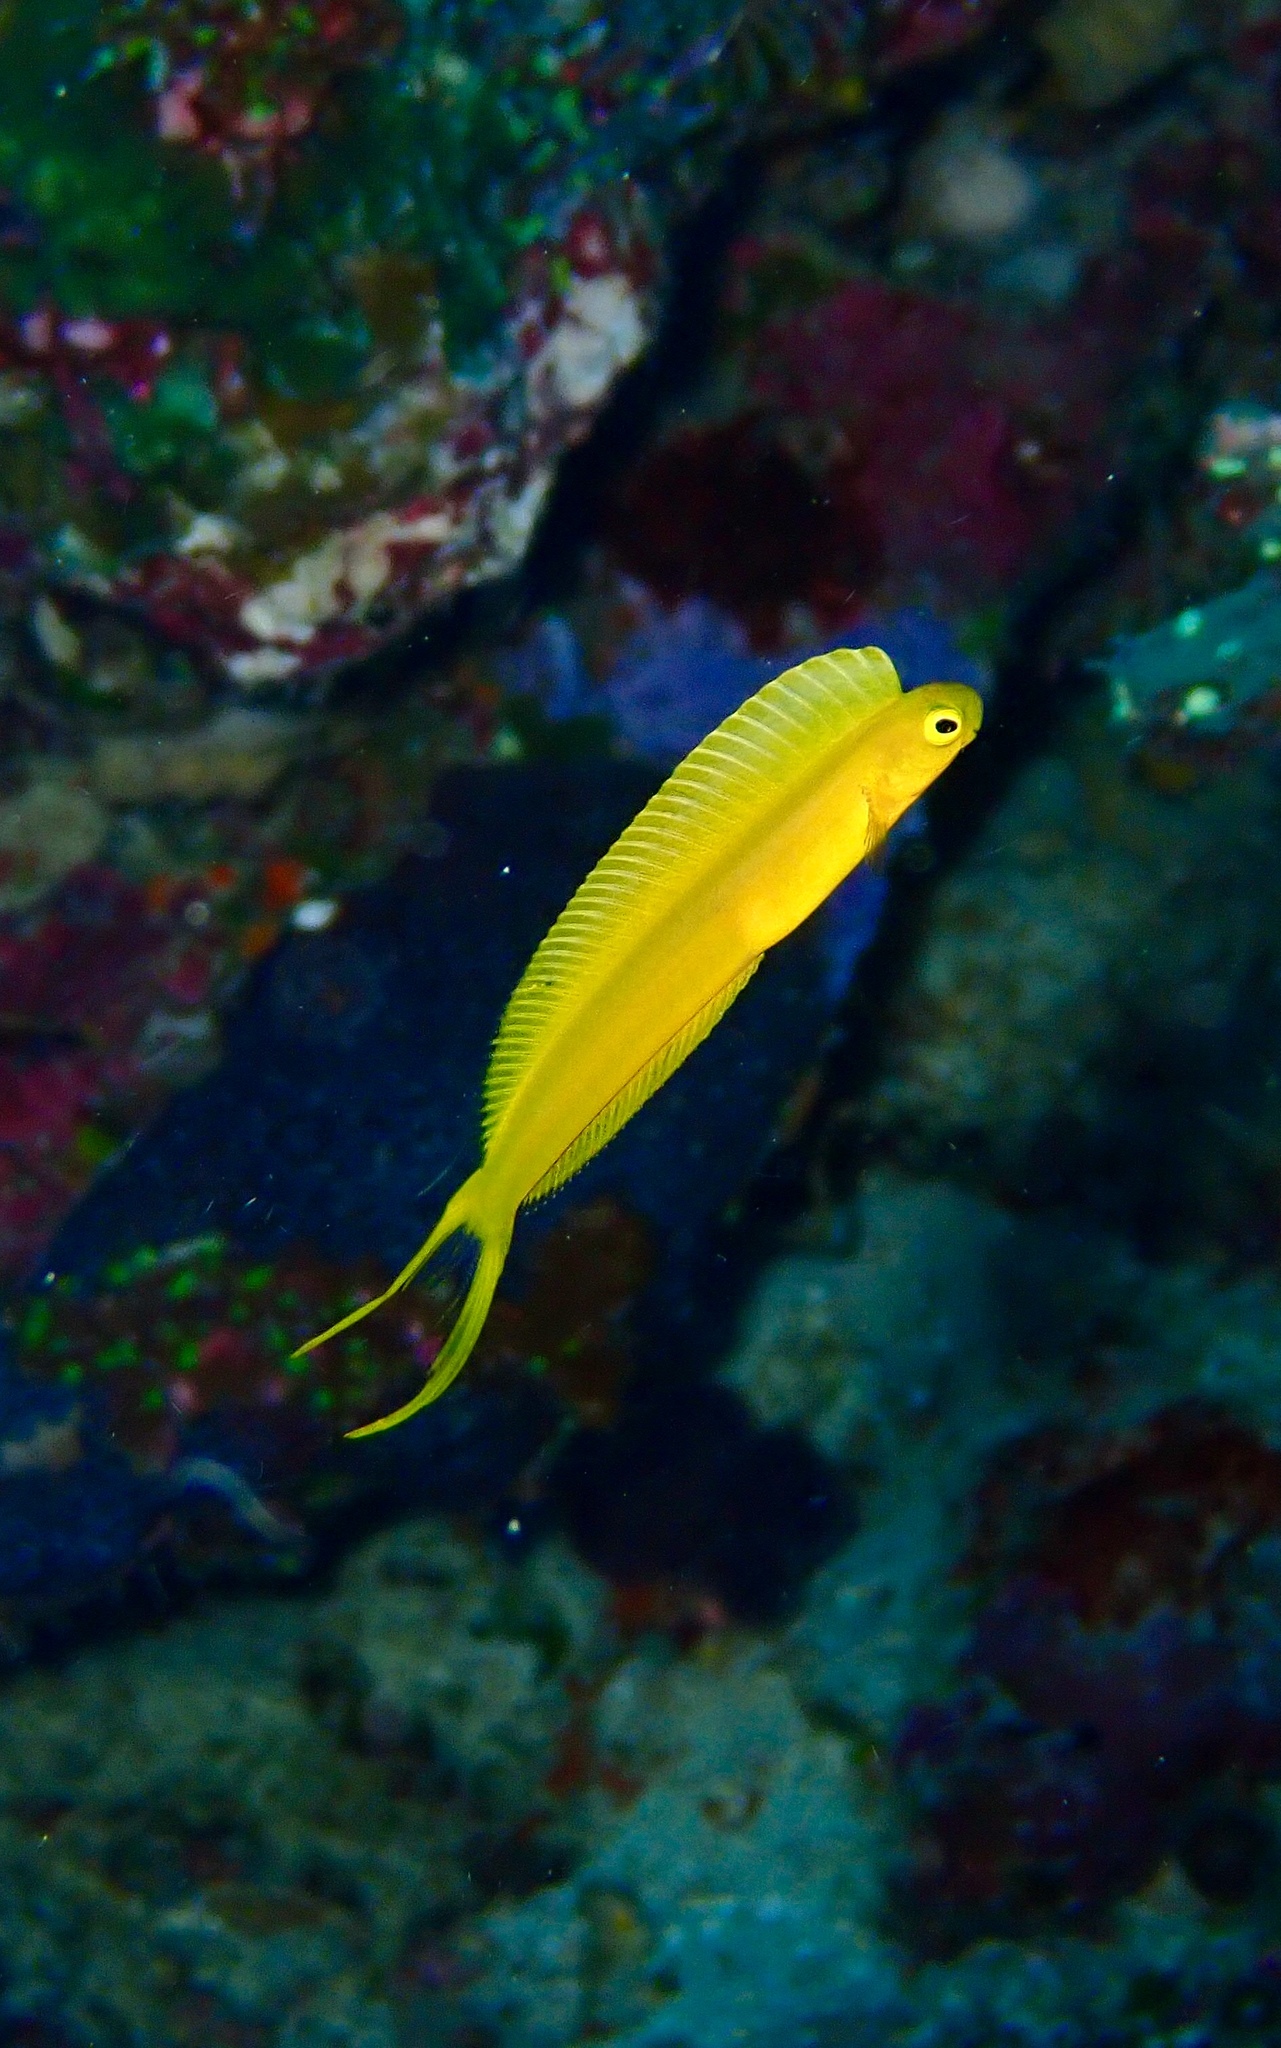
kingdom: Animalia
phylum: Chordata
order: Perciformes
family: Blenniidae
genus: Plagiotremus
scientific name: Plagiotremus laudandus
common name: Bicolour fangblenny
